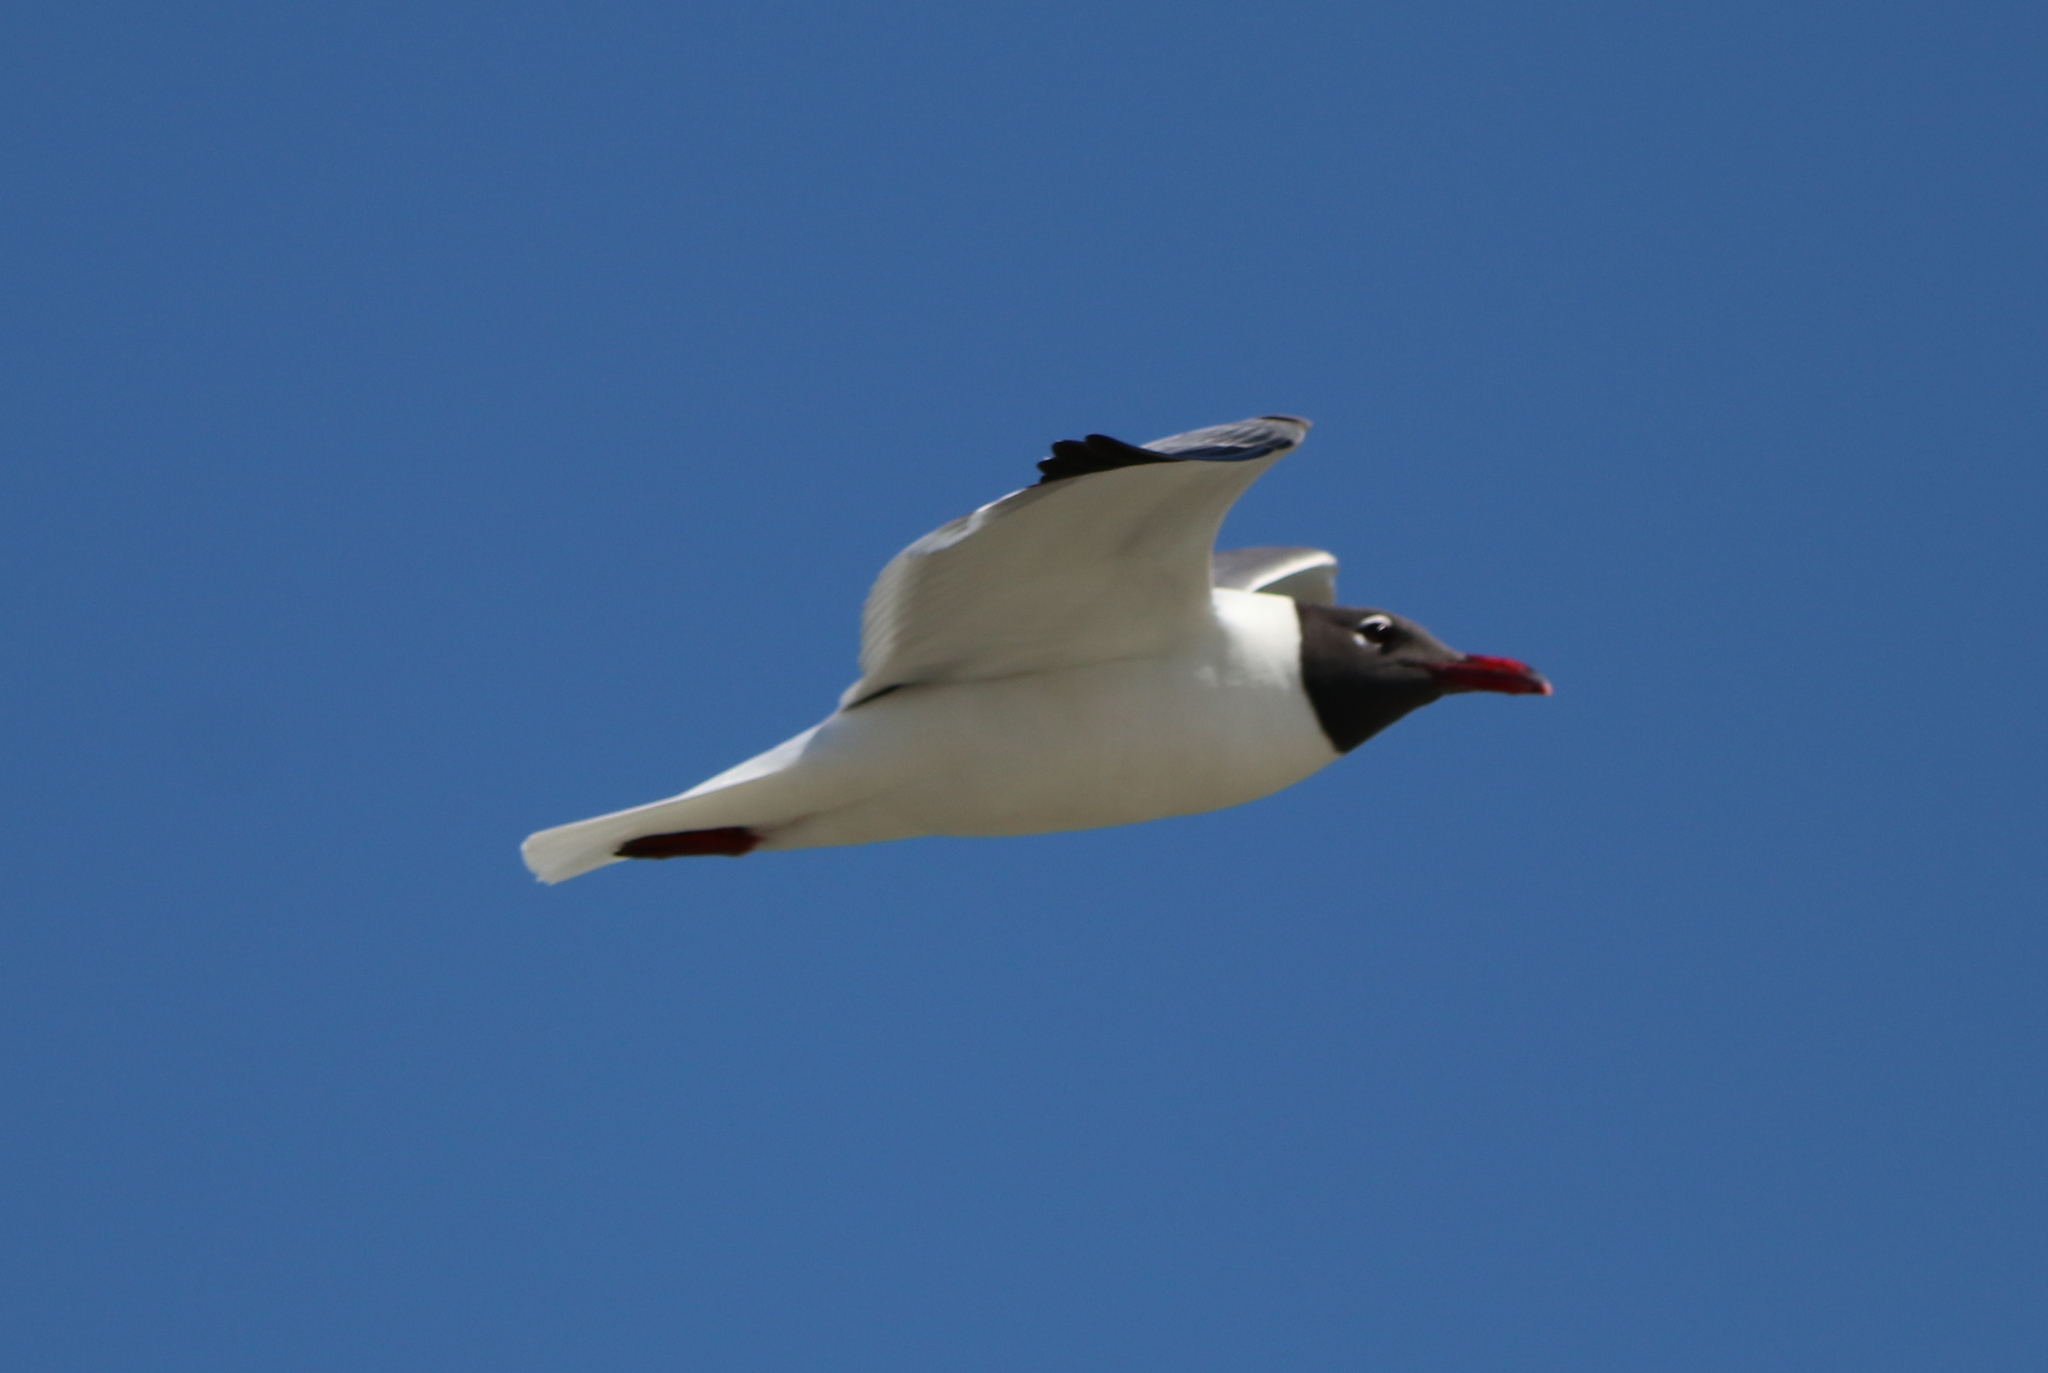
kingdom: Animalia
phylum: Chordata
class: Aves
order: Charadriiformes
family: Laridae
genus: Leucophaeus
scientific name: Leucophaeus atricilla
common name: Laughing gull
